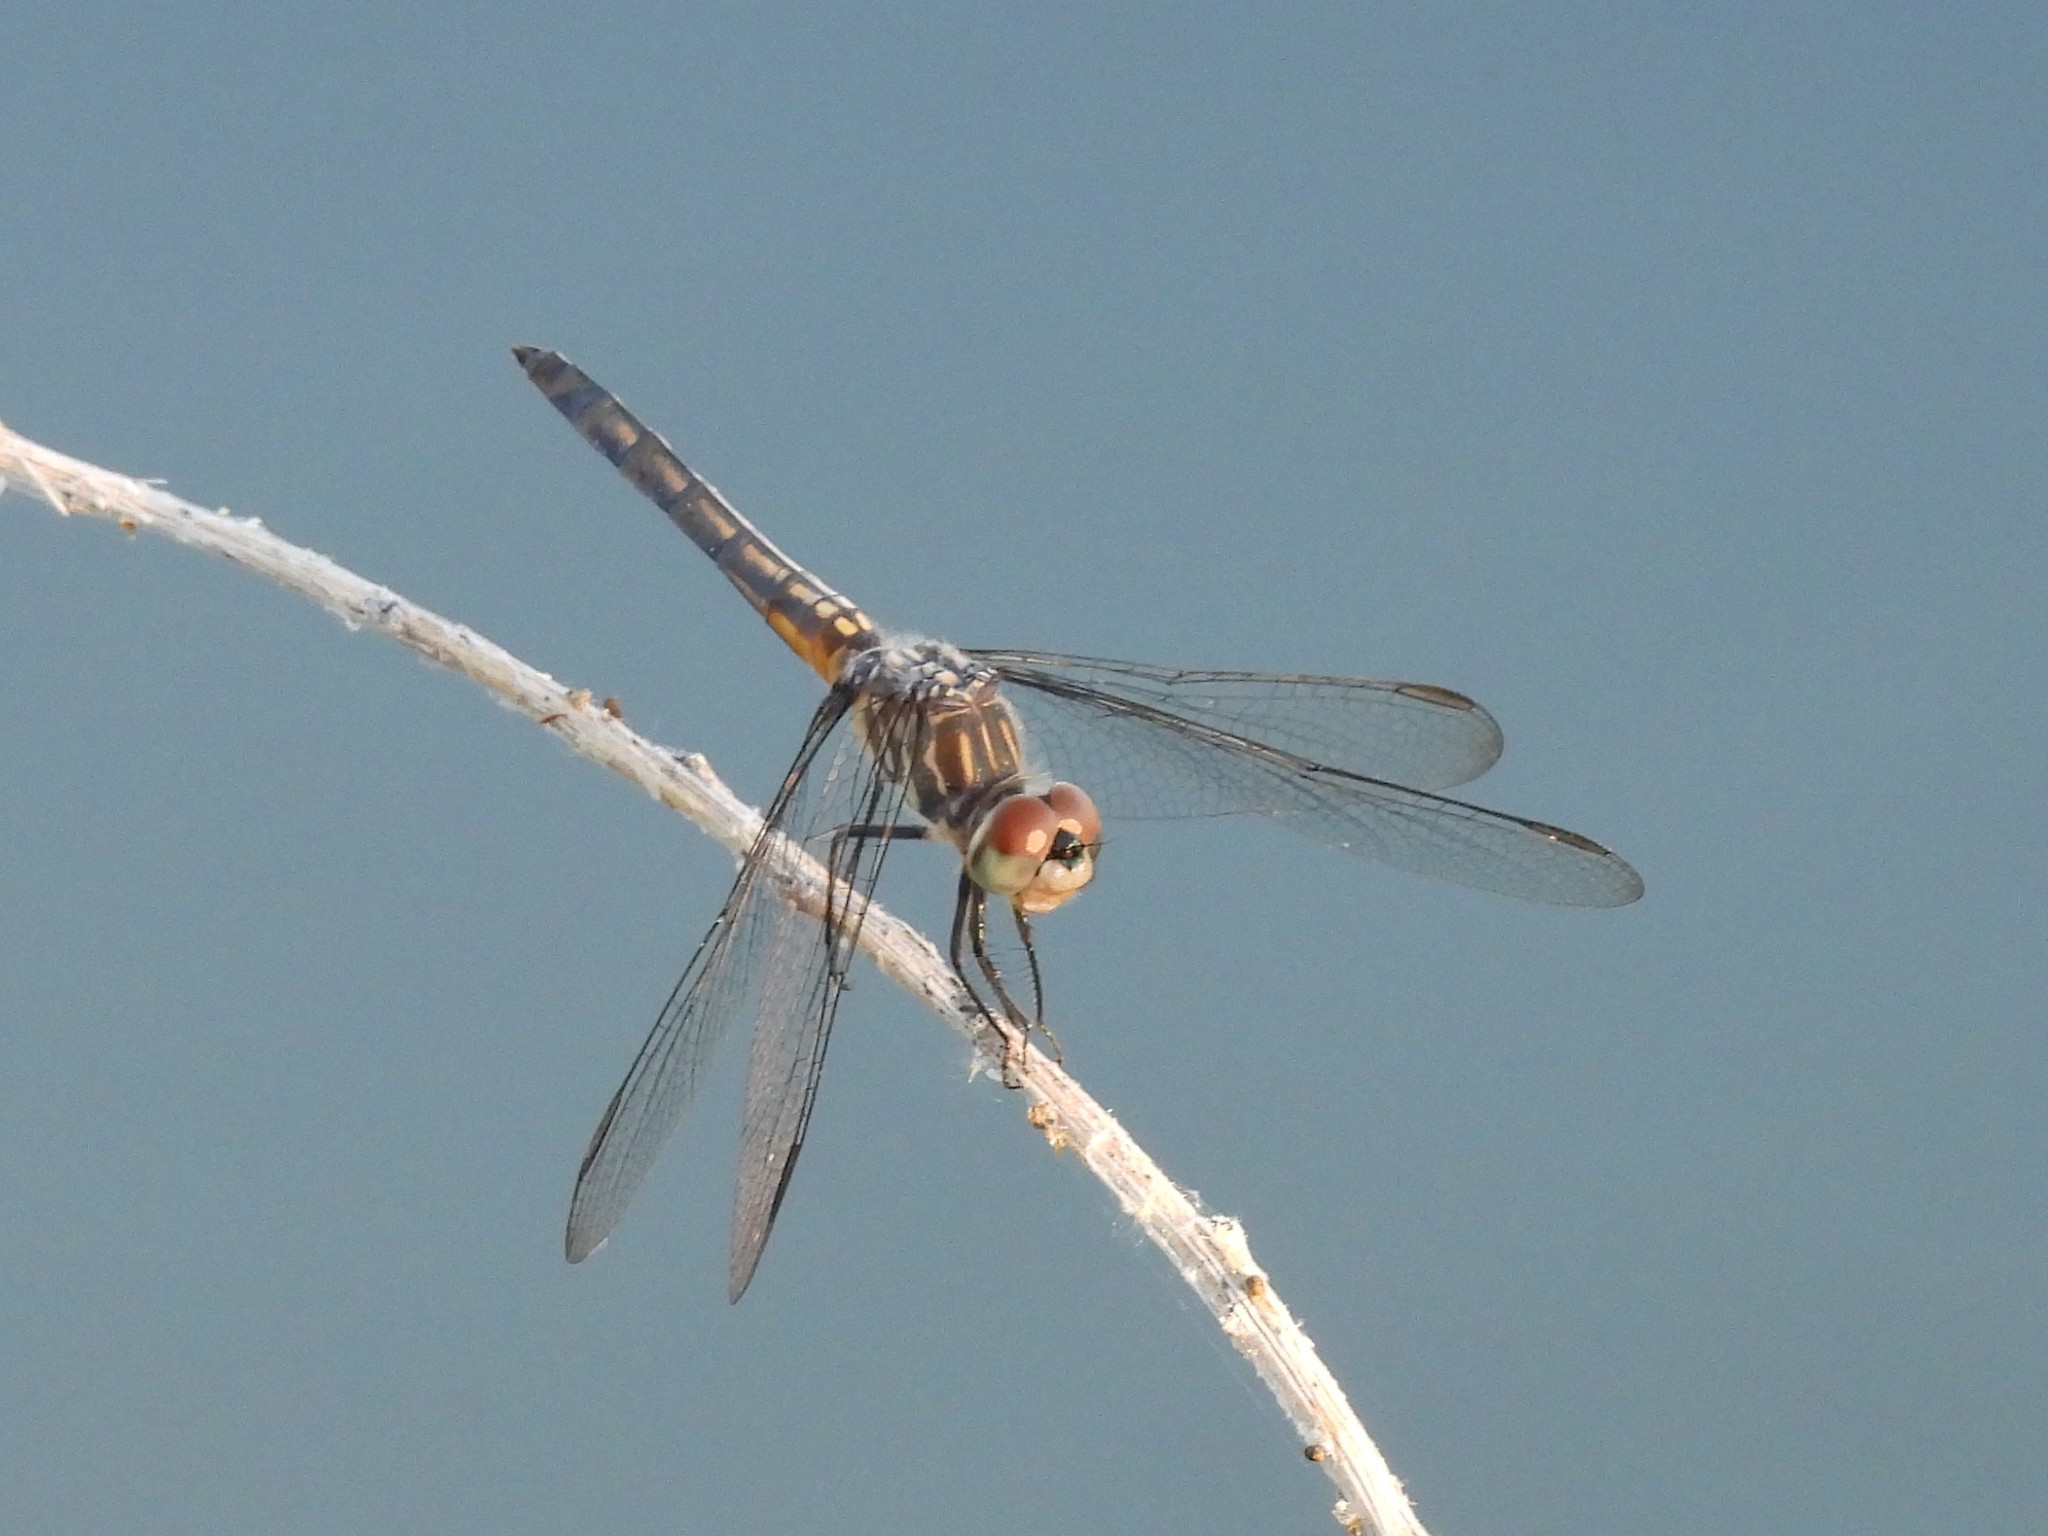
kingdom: Animalia
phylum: Arthropoda
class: Insecta
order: Odonata
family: Libellulidae
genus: Pachydiplax
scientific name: Pachydiplax longipennis
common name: Blue dasher
